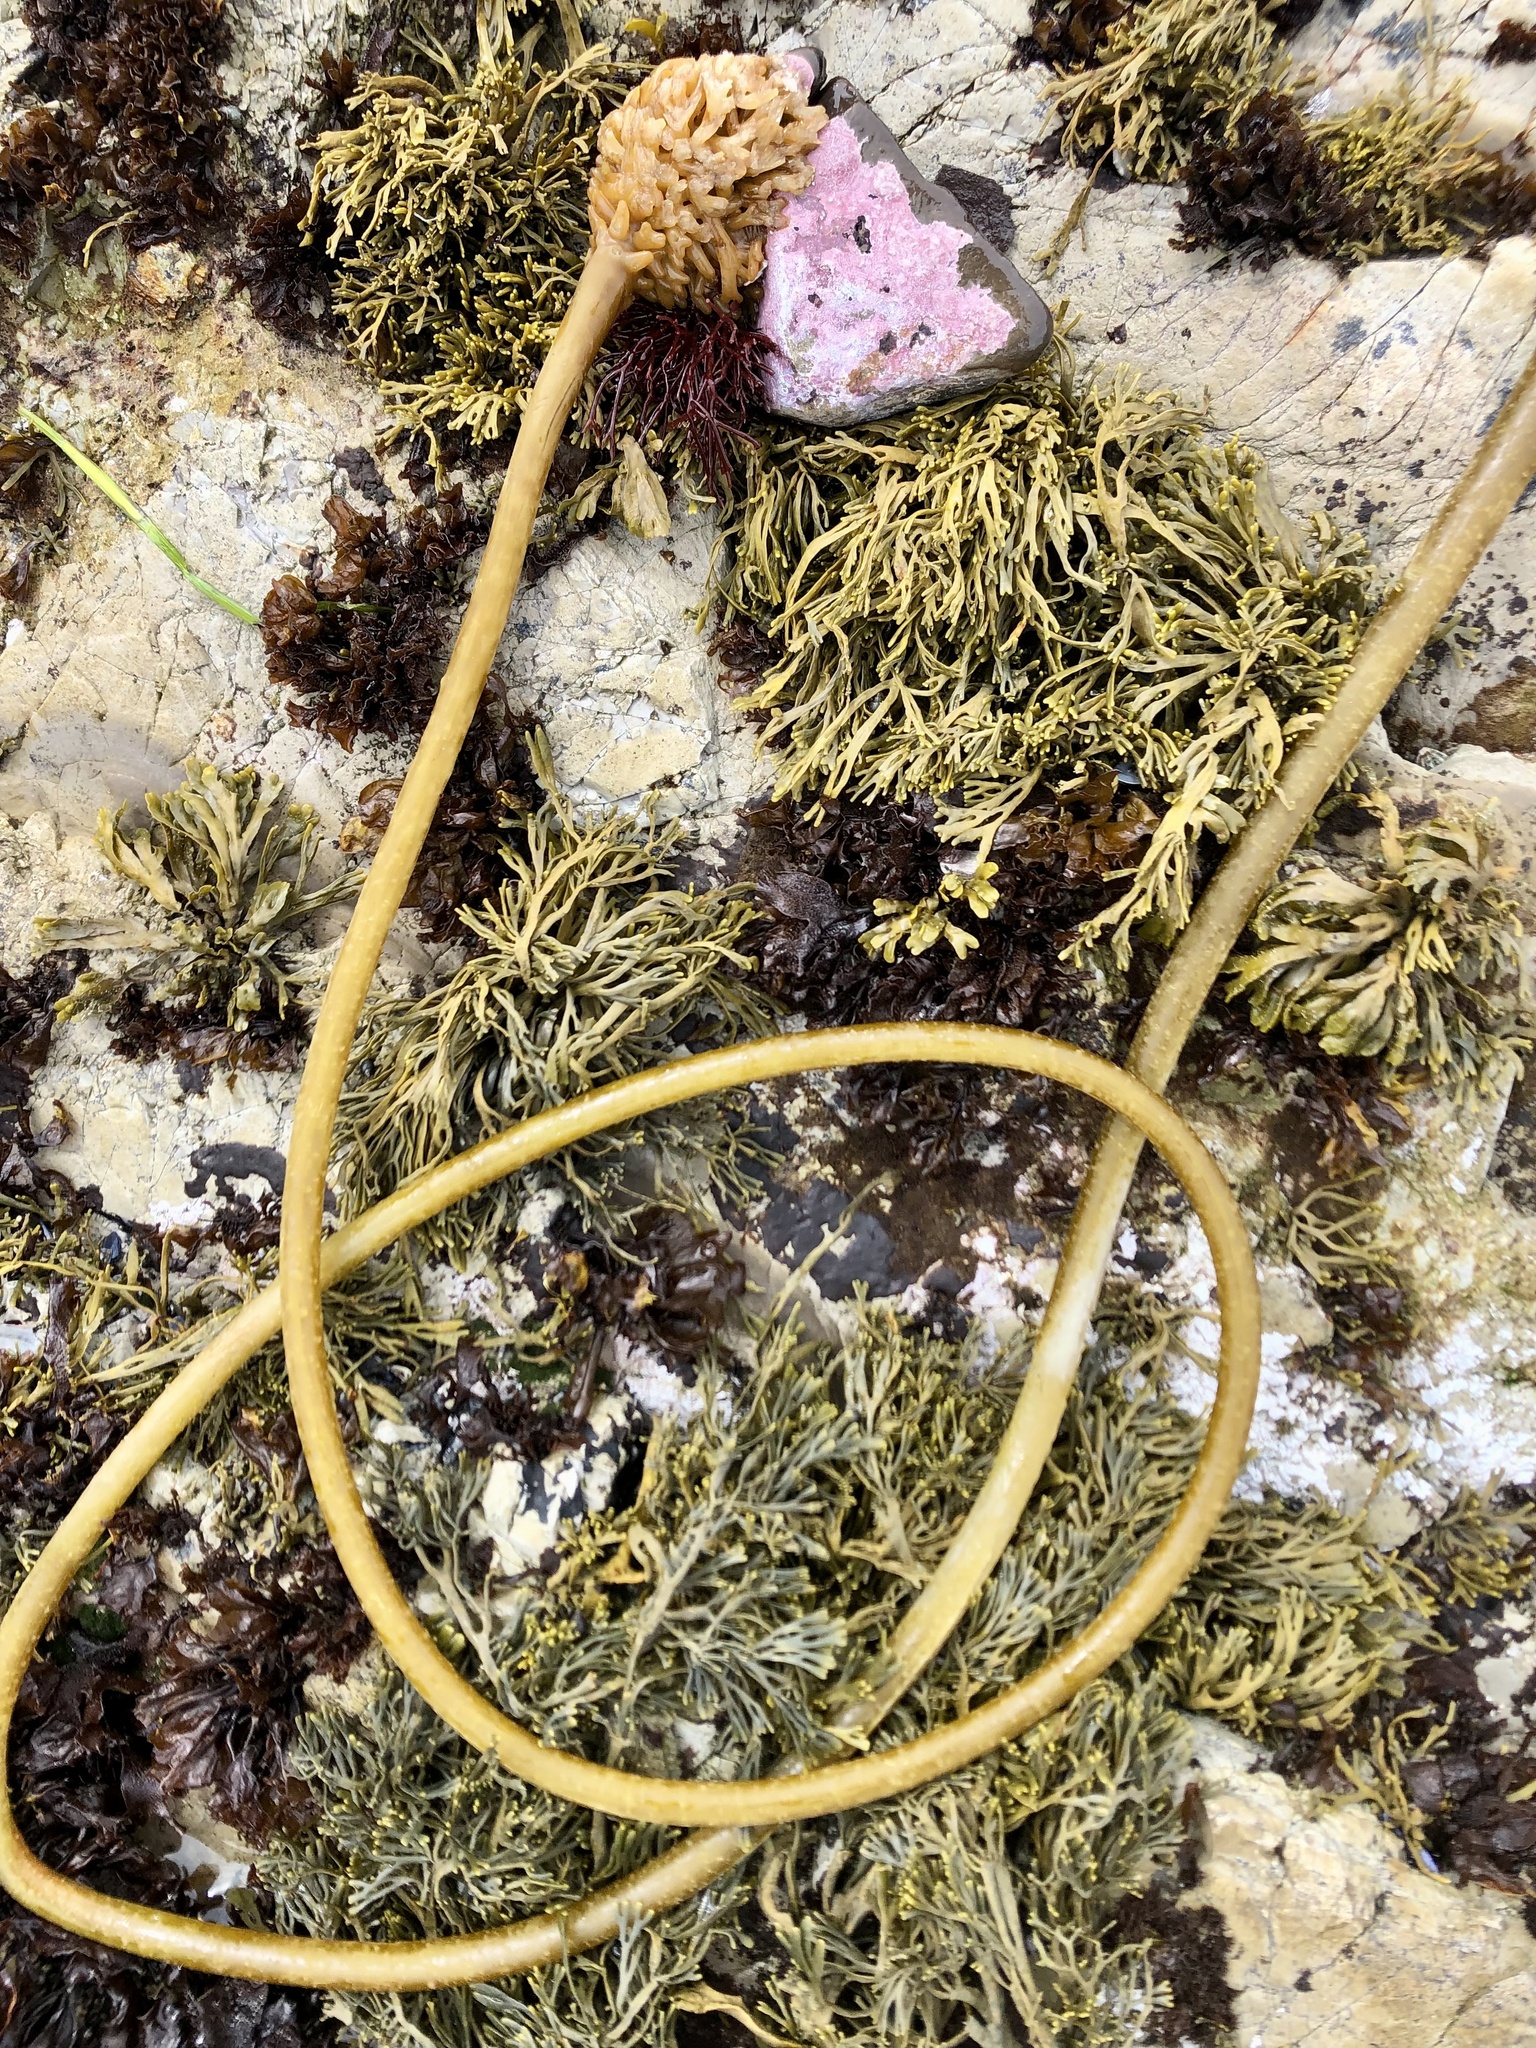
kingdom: Chromista
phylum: Ochrophyta
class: Phaeophyceae
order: Laminariales
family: Laminariaceae
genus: Nereocystis
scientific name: Nereocystis luetkeana
